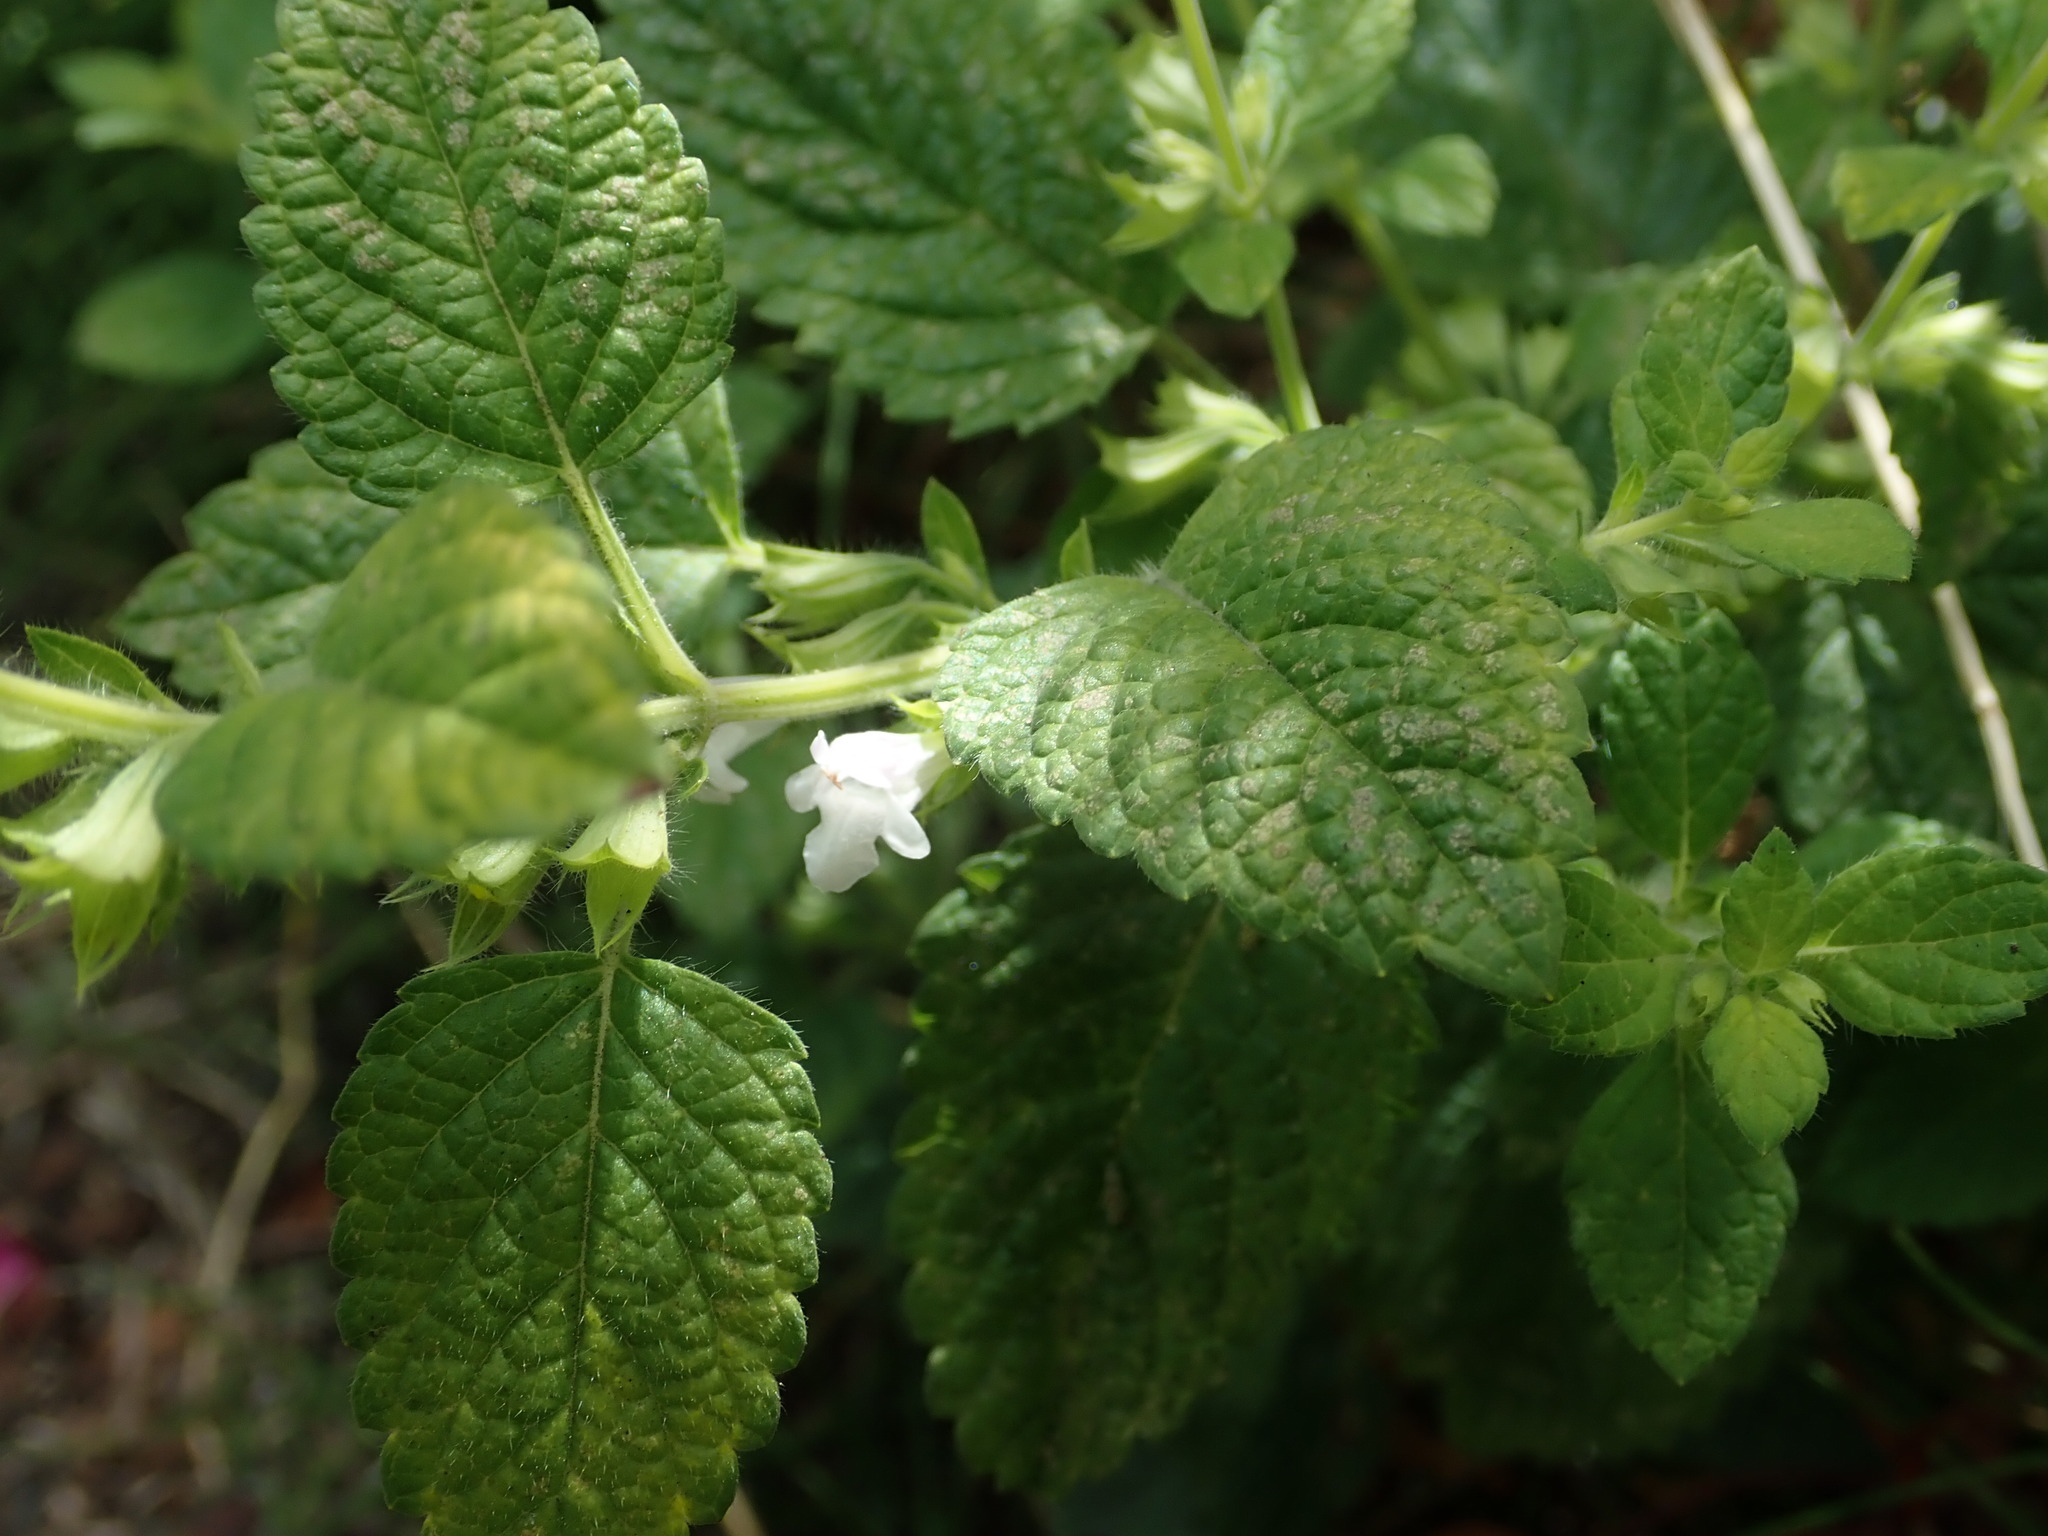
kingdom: Plantae
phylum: Tracheophyta
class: Magnoliopsida
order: Lamiales
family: Lamiaceae
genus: Melissa
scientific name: Melissa officinalis
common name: Balm
